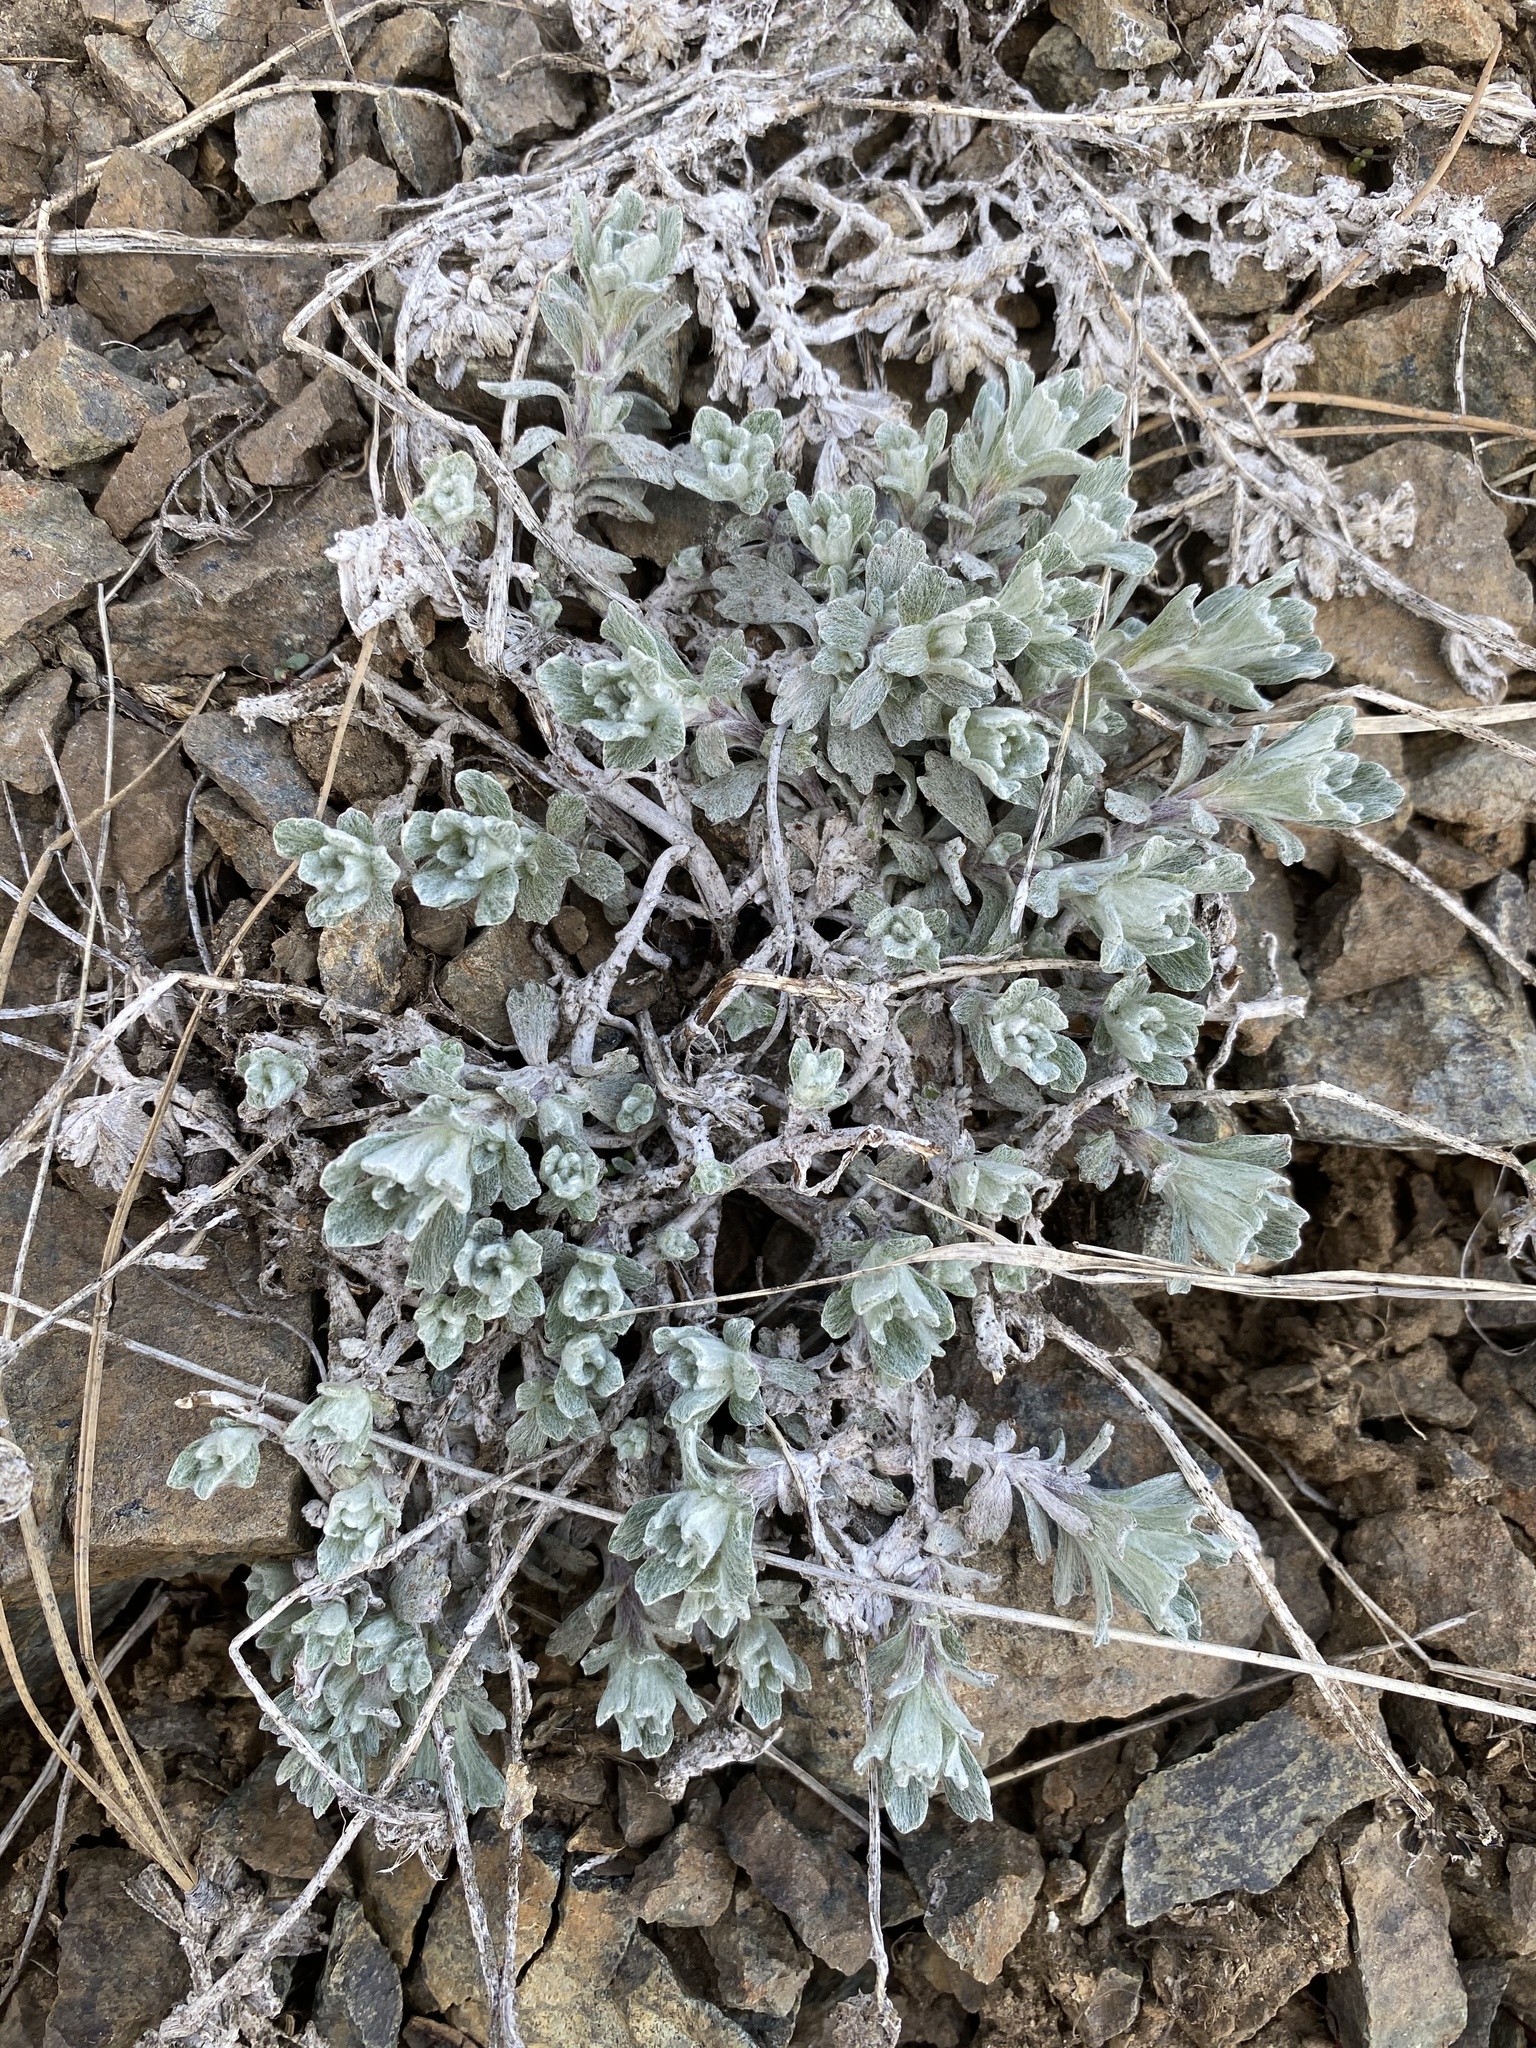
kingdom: Plantae
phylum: Tracheophyta
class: Magnoliopsida
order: Asterales
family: Asteraceae
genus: Eriophyllum
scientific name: Eriophyllum lanatum
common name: Common woolly-sunflower
